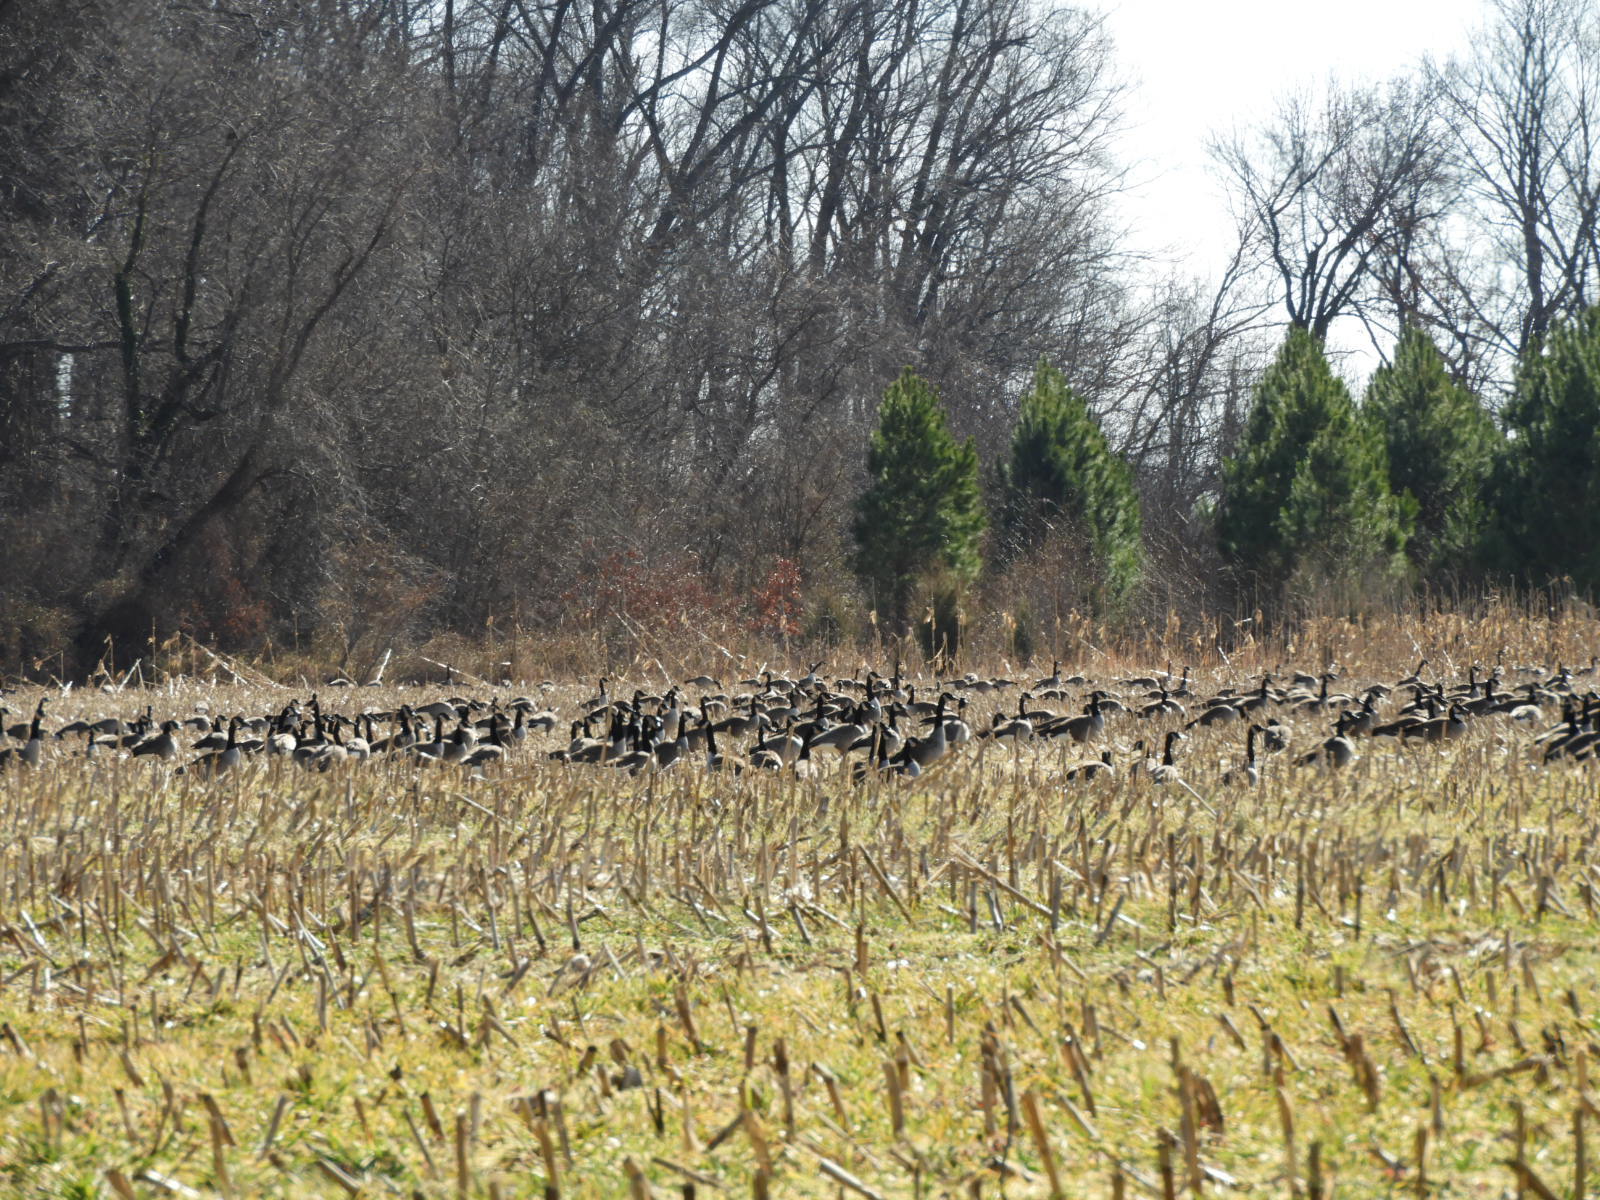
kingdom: Animalia
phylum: Chordata
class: Aves
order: Anseriformes
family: Anatidae
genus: Branta
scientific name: Branta canadensis
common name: Canada goose
